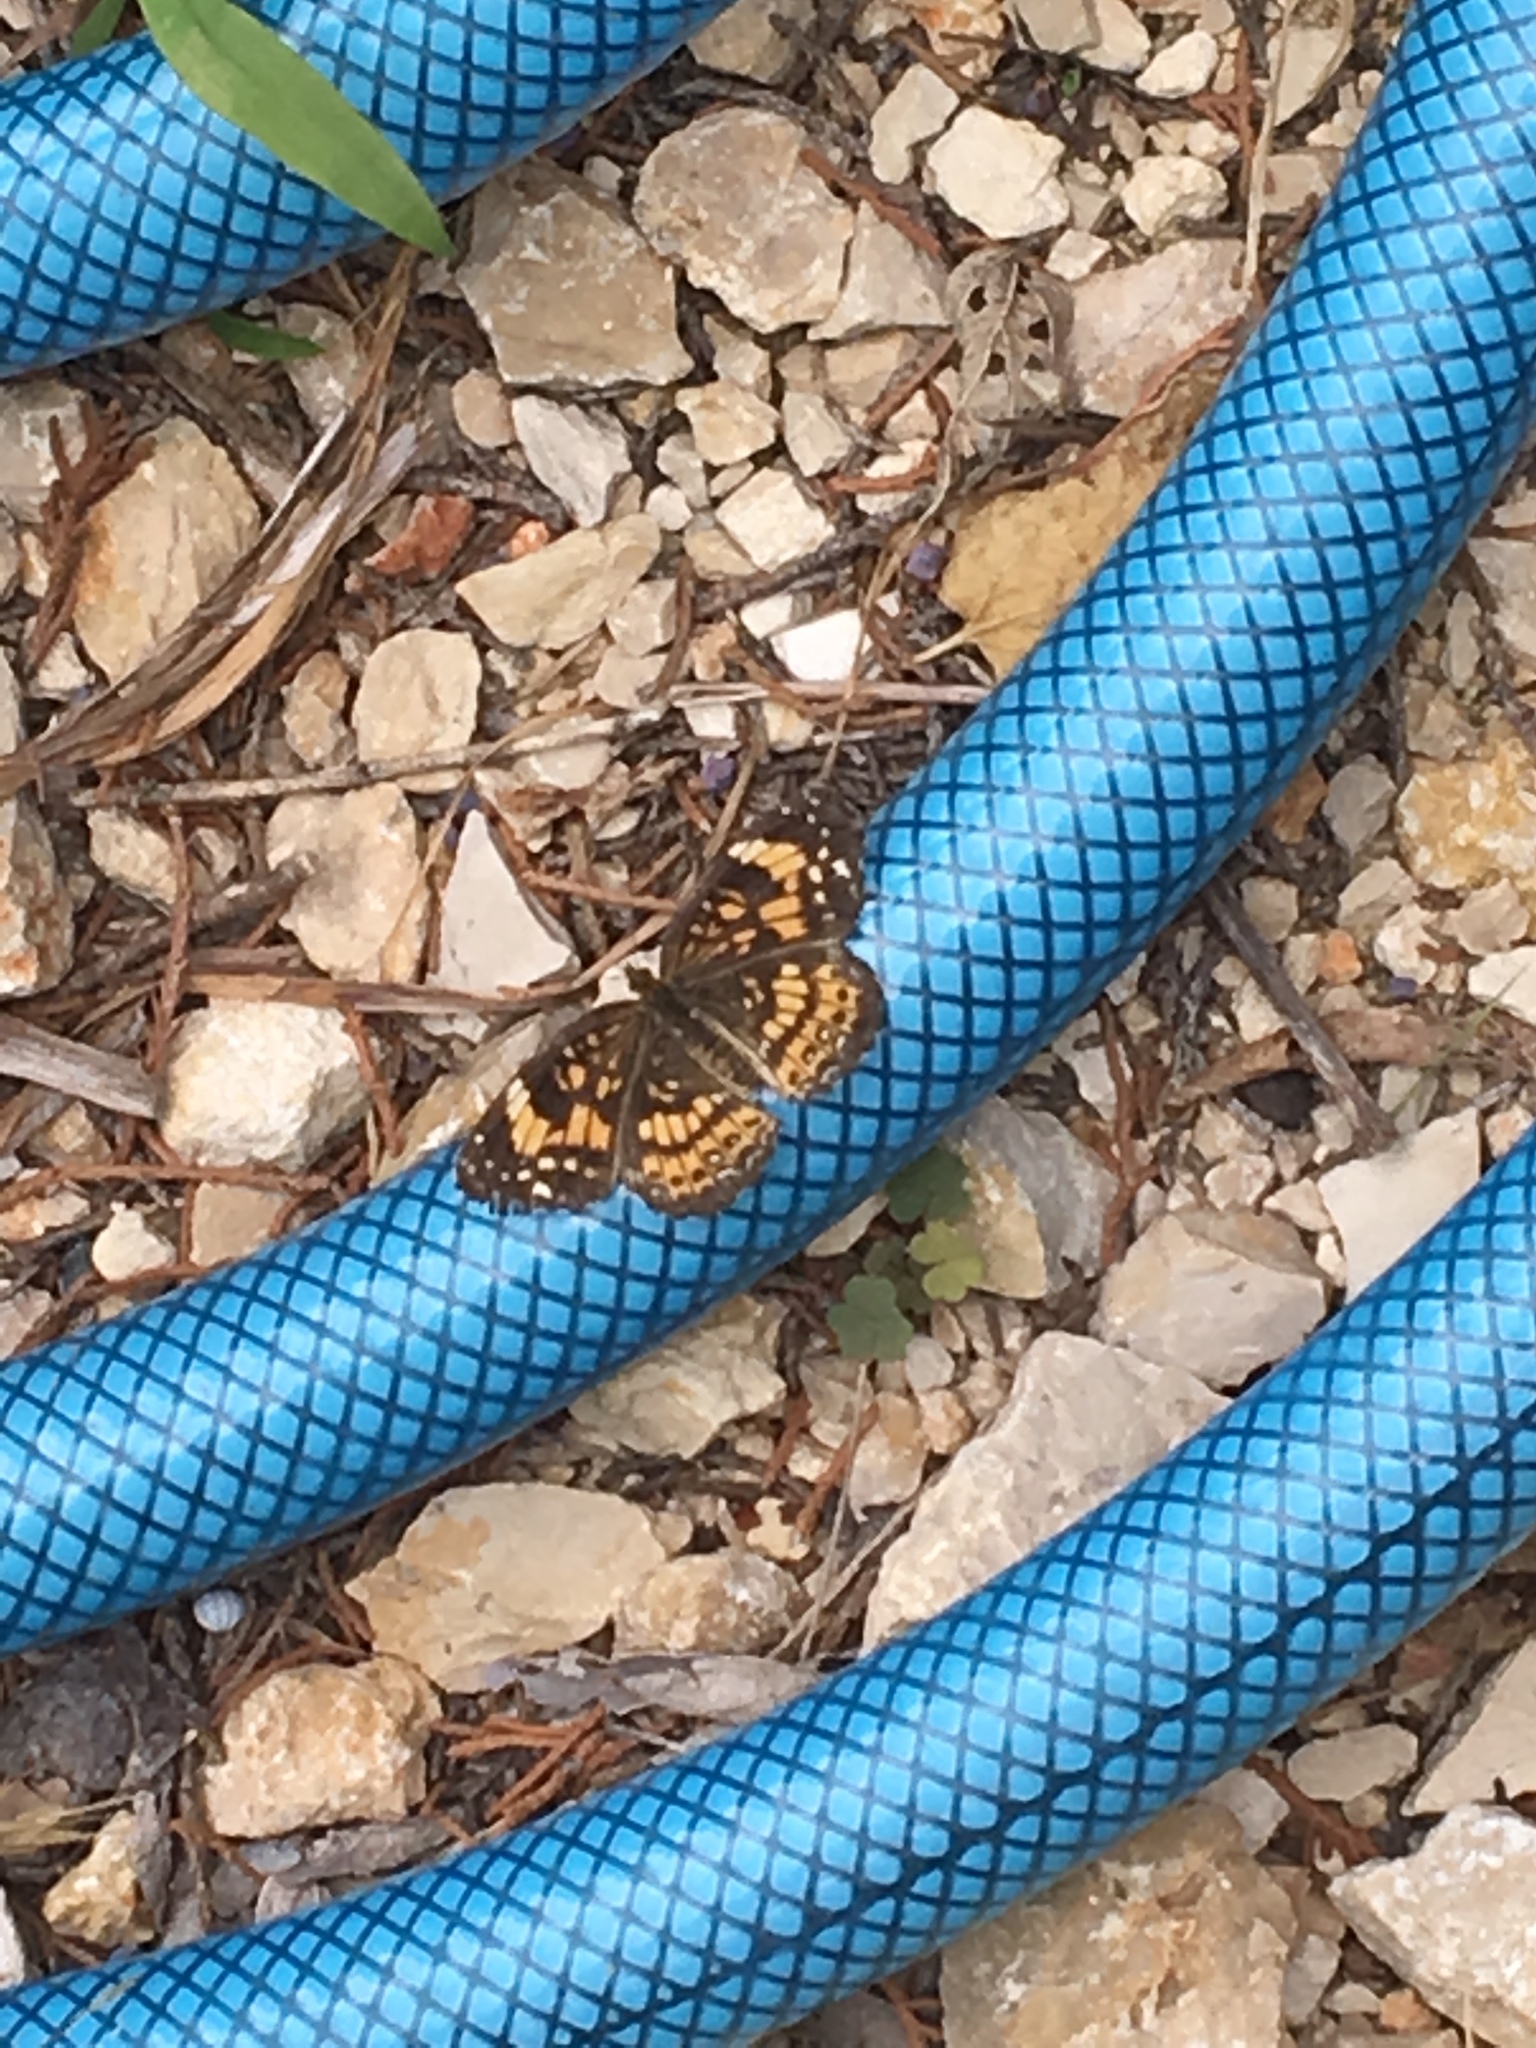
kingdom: Animalia
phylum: Arthropoda
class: Insecta
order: Lepidoptera
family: Nymphalidae
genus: Chlosyne
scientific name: Chlosyne nycteis
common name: Silvery checkerspot
